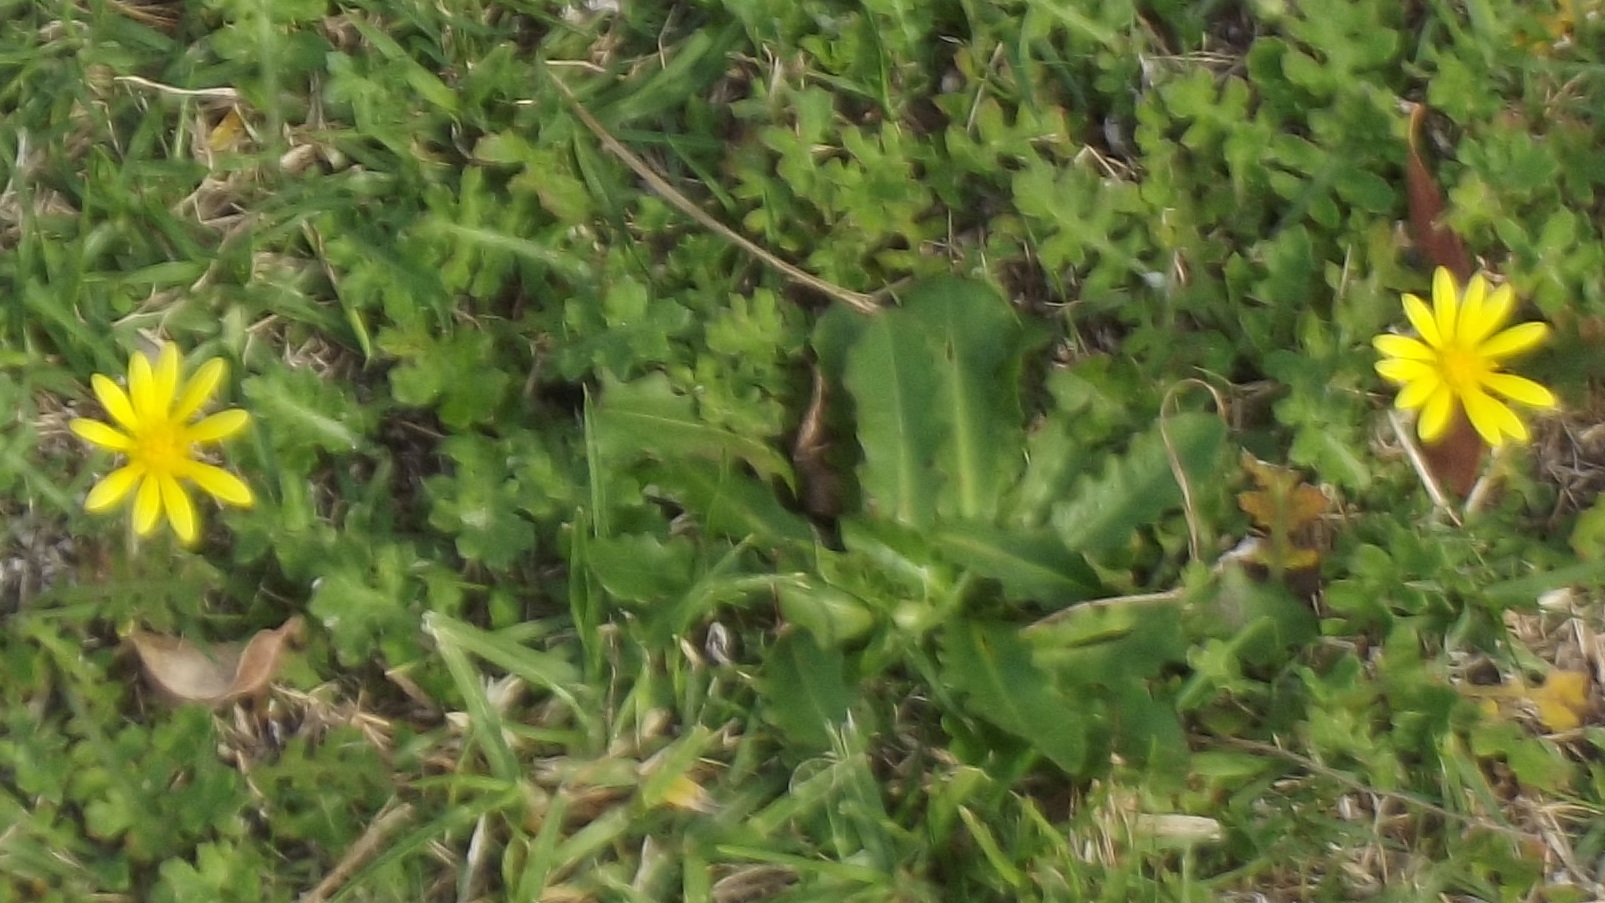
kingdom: Plantae
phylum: Tracheophyta
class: Magnoliopsida
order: Asterales
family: Asteraceae
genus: Arctotheca
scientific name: Arctotheca prostrata
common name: Capeweed
